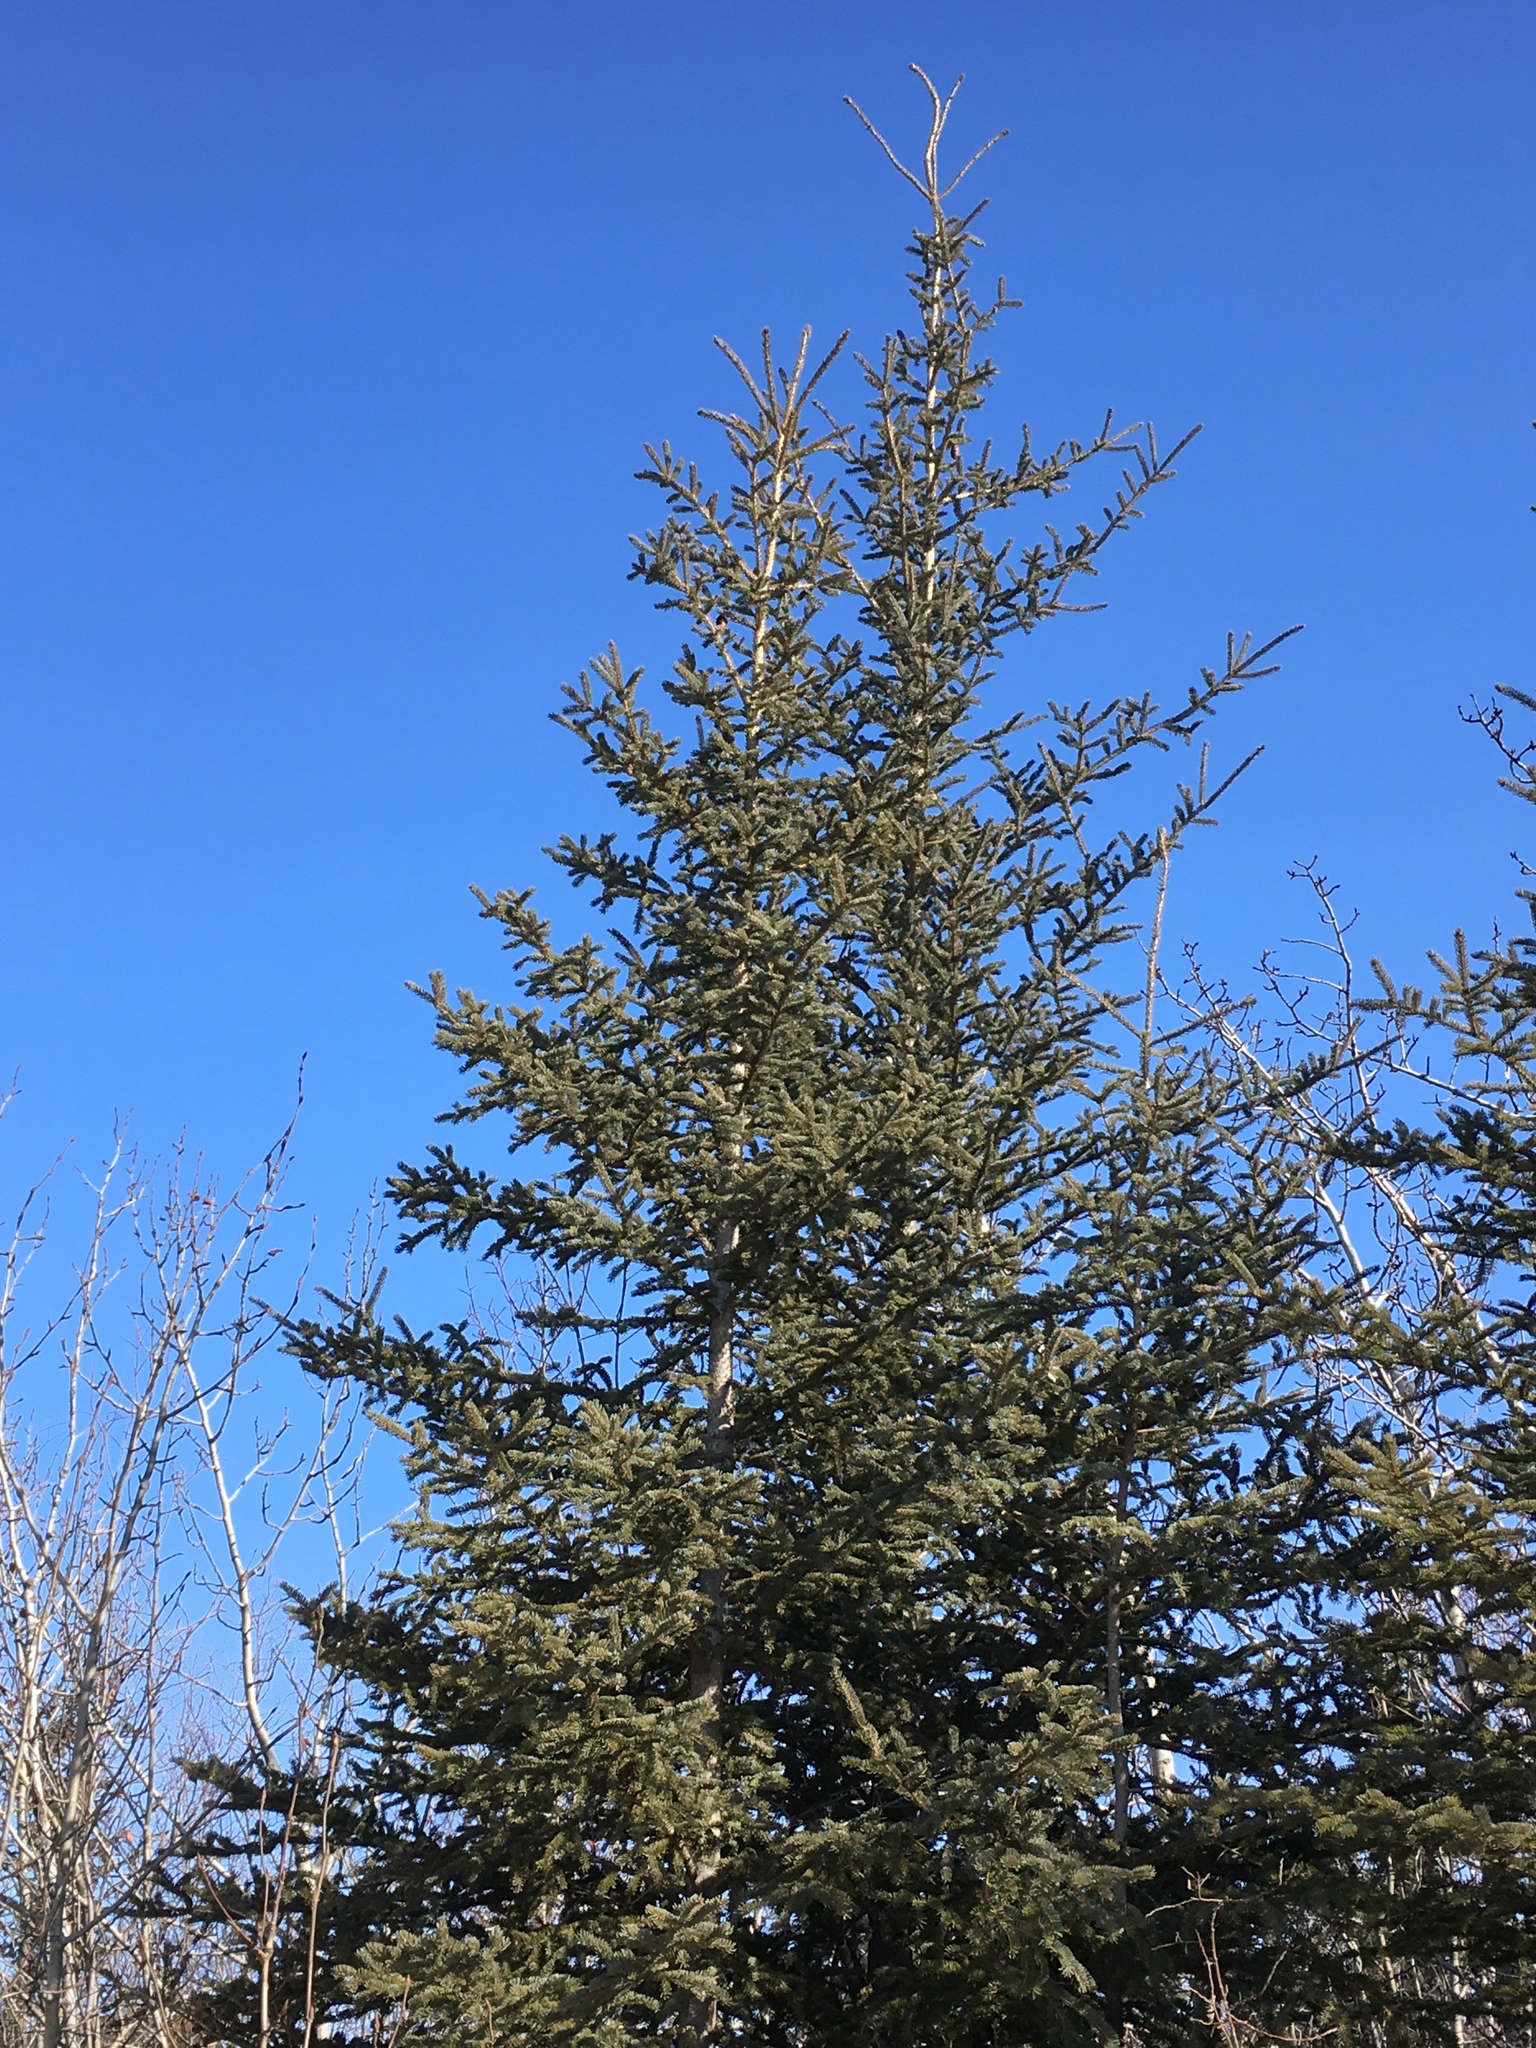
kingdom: Plantae
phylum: Tracheophyta
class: Pinopsida
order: Pinales
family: Pinaceae
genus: Picea
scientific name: Picea glauca
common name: White spruce
